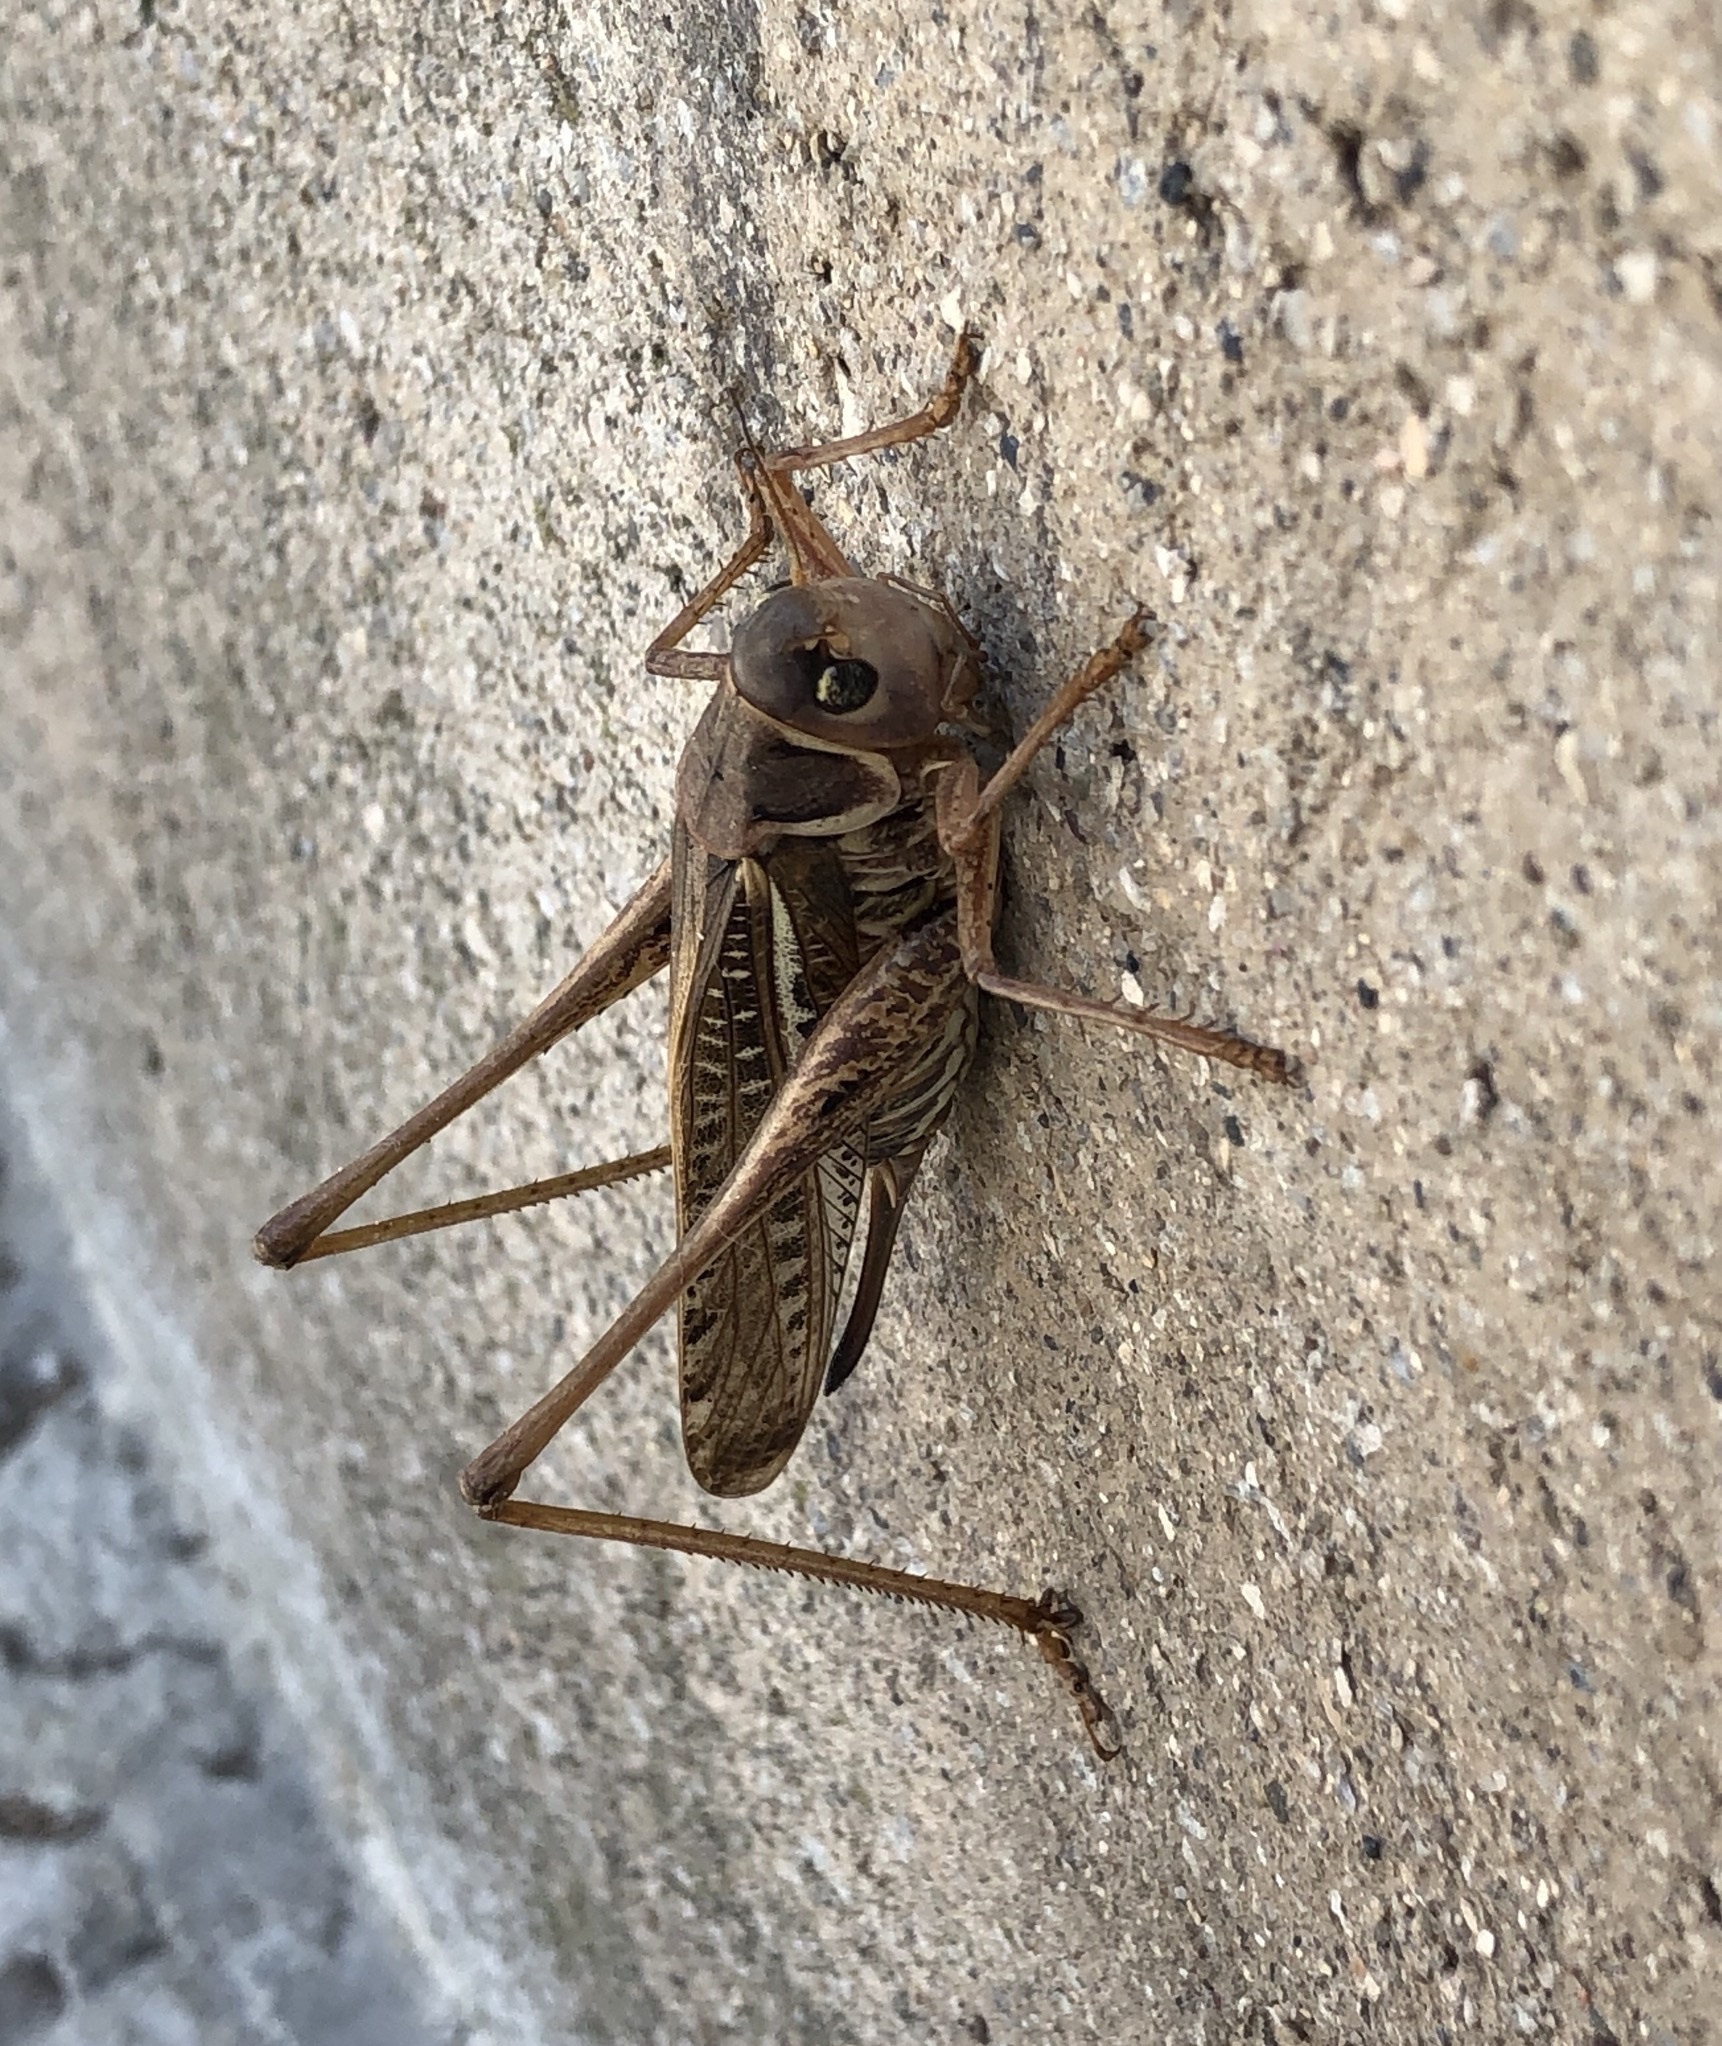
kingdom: Animalia
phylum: Arthropoda
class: Insecta
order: Orthoptera
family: Tettigoniidae
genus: Decticus
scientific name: Decticus albifrons
